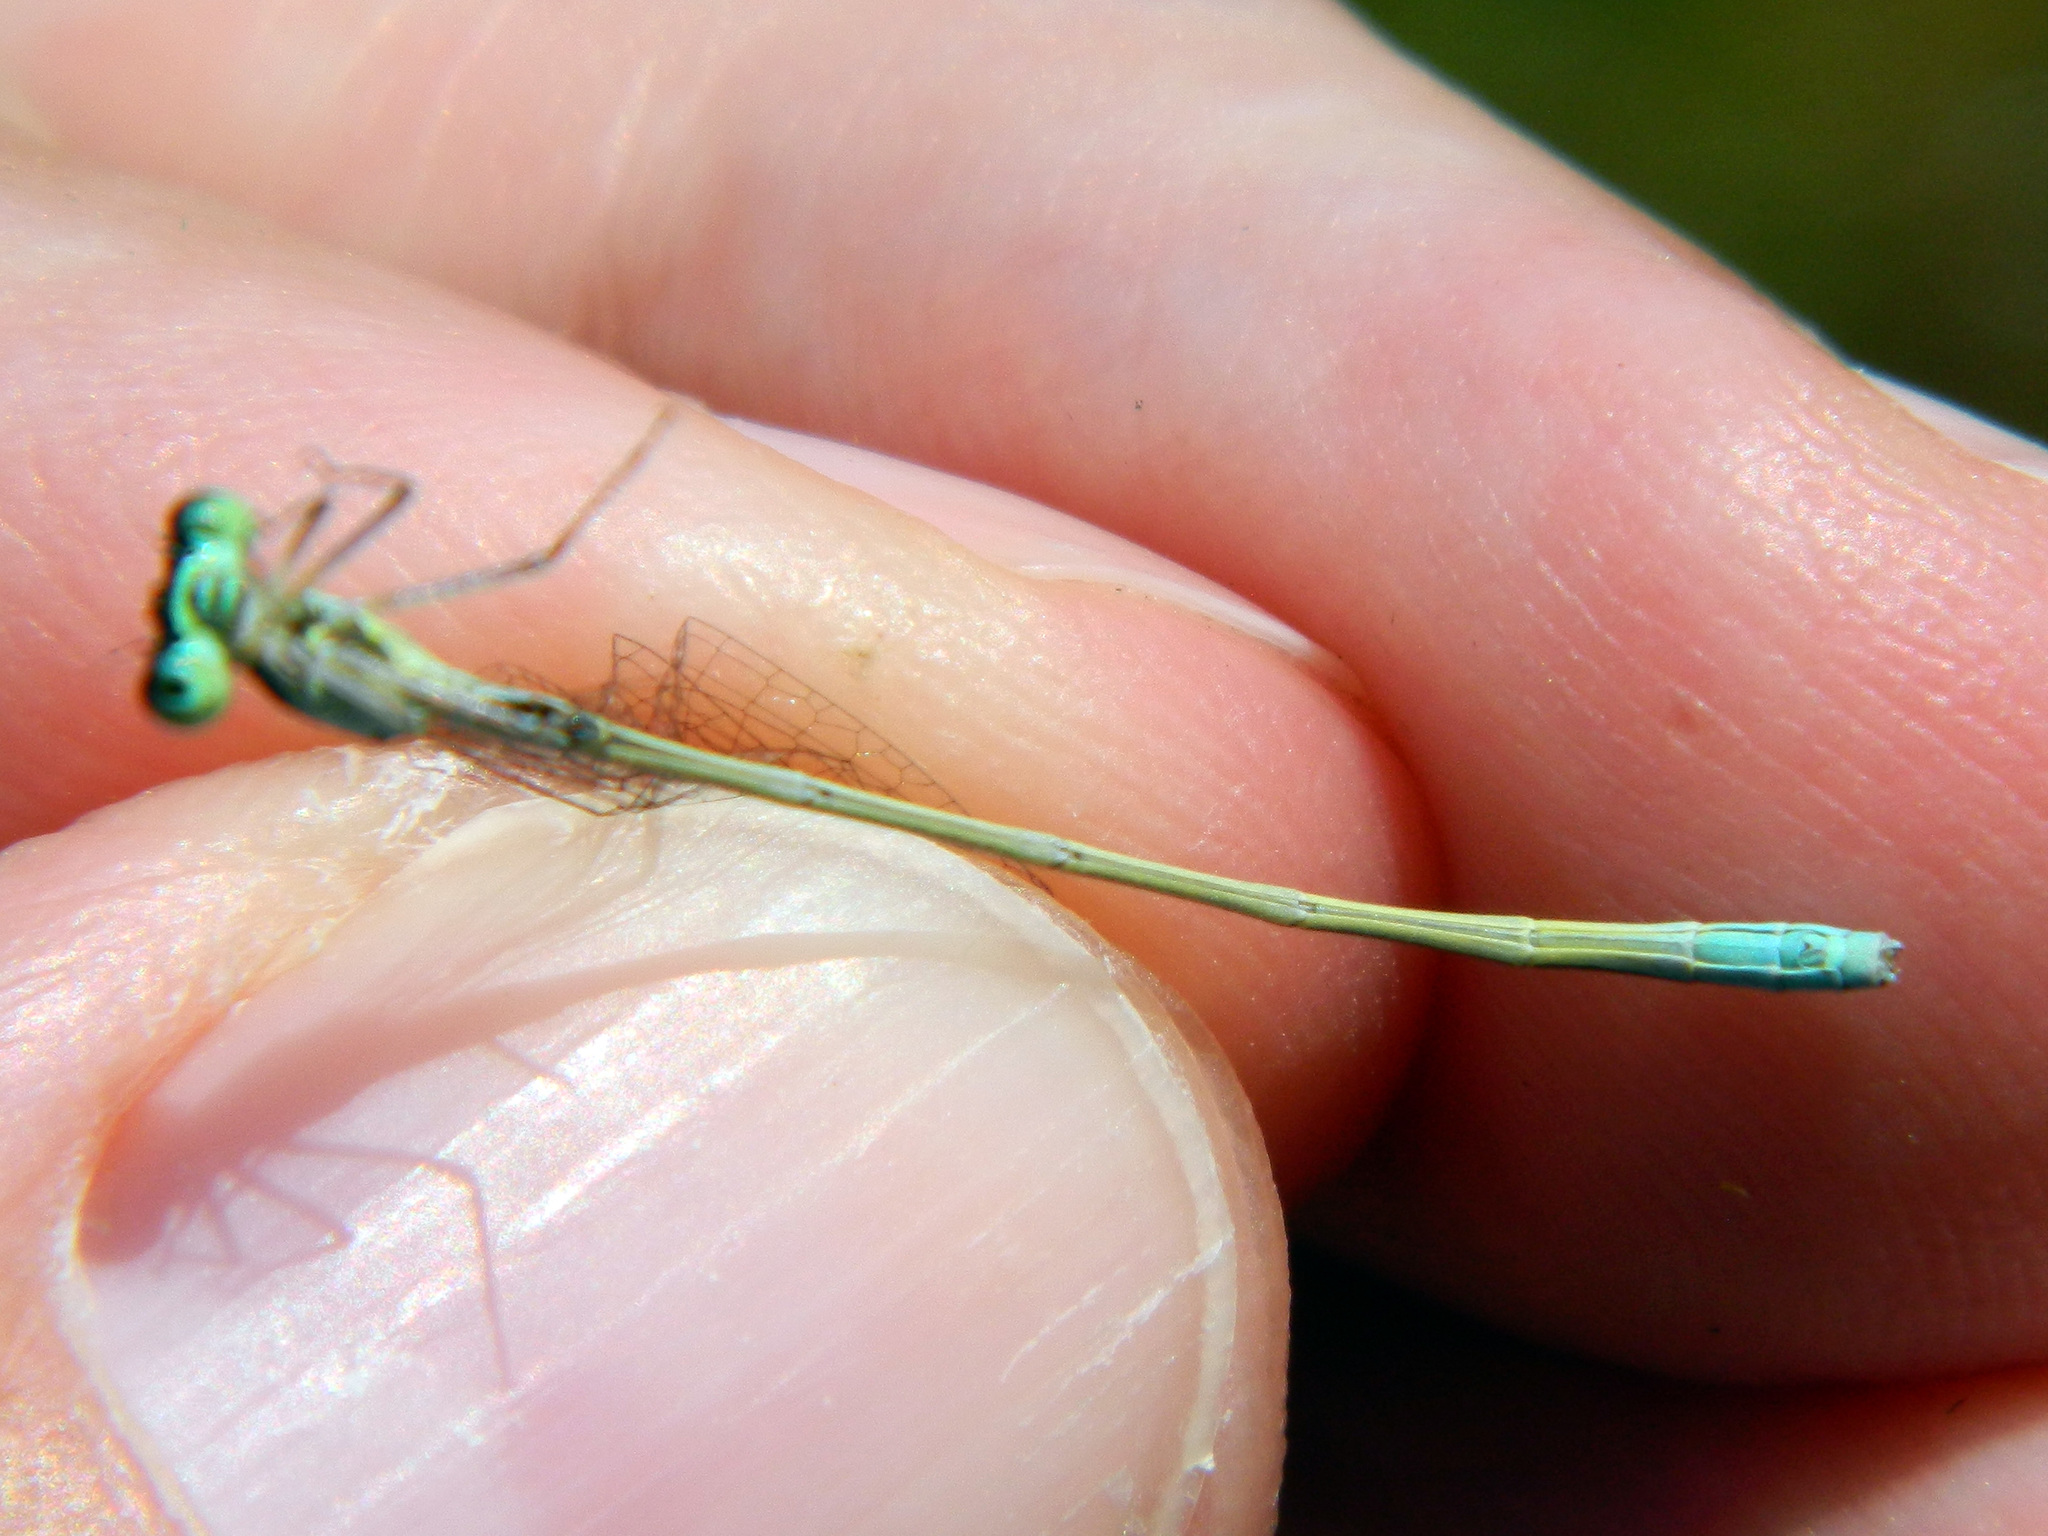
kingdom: Animalia
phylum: Arthropoda
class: Insecta
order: Odonata
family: Coenagrionidae
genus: Nehalennia
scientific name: Nehalennia irene
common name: Sedge sprite
